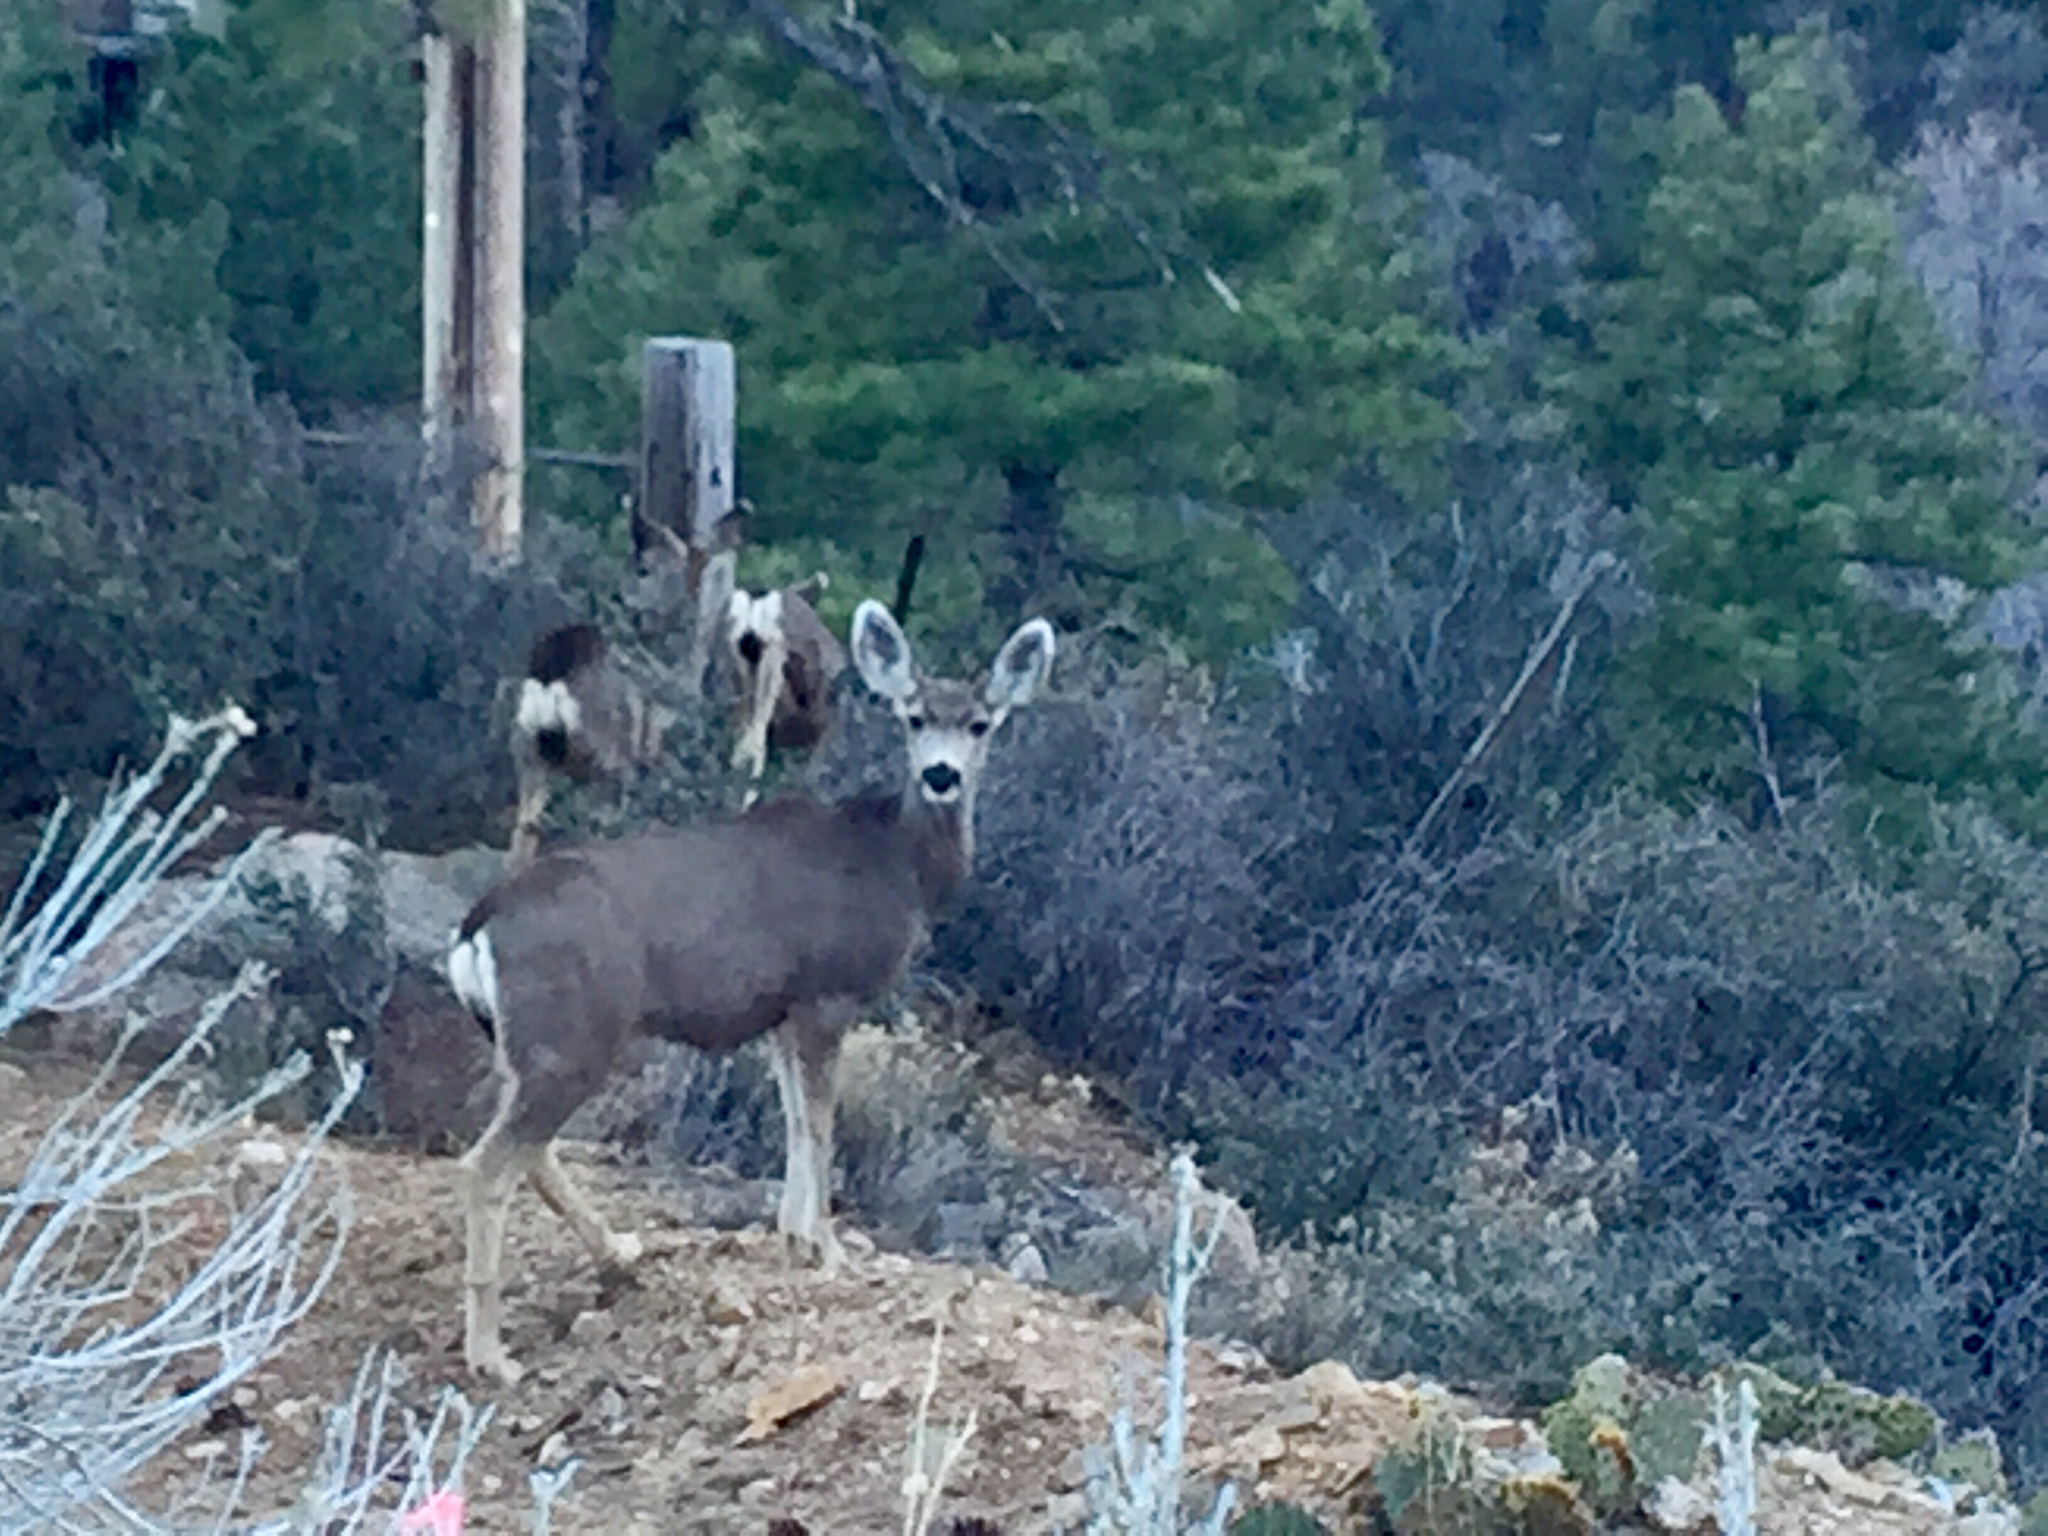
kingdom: Animalia
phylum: Chordata
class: Mammalia
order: Artiodactyla
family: Cervidae
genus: Odocoileus
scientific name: Odocoileus hemionus
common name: Mule deer
